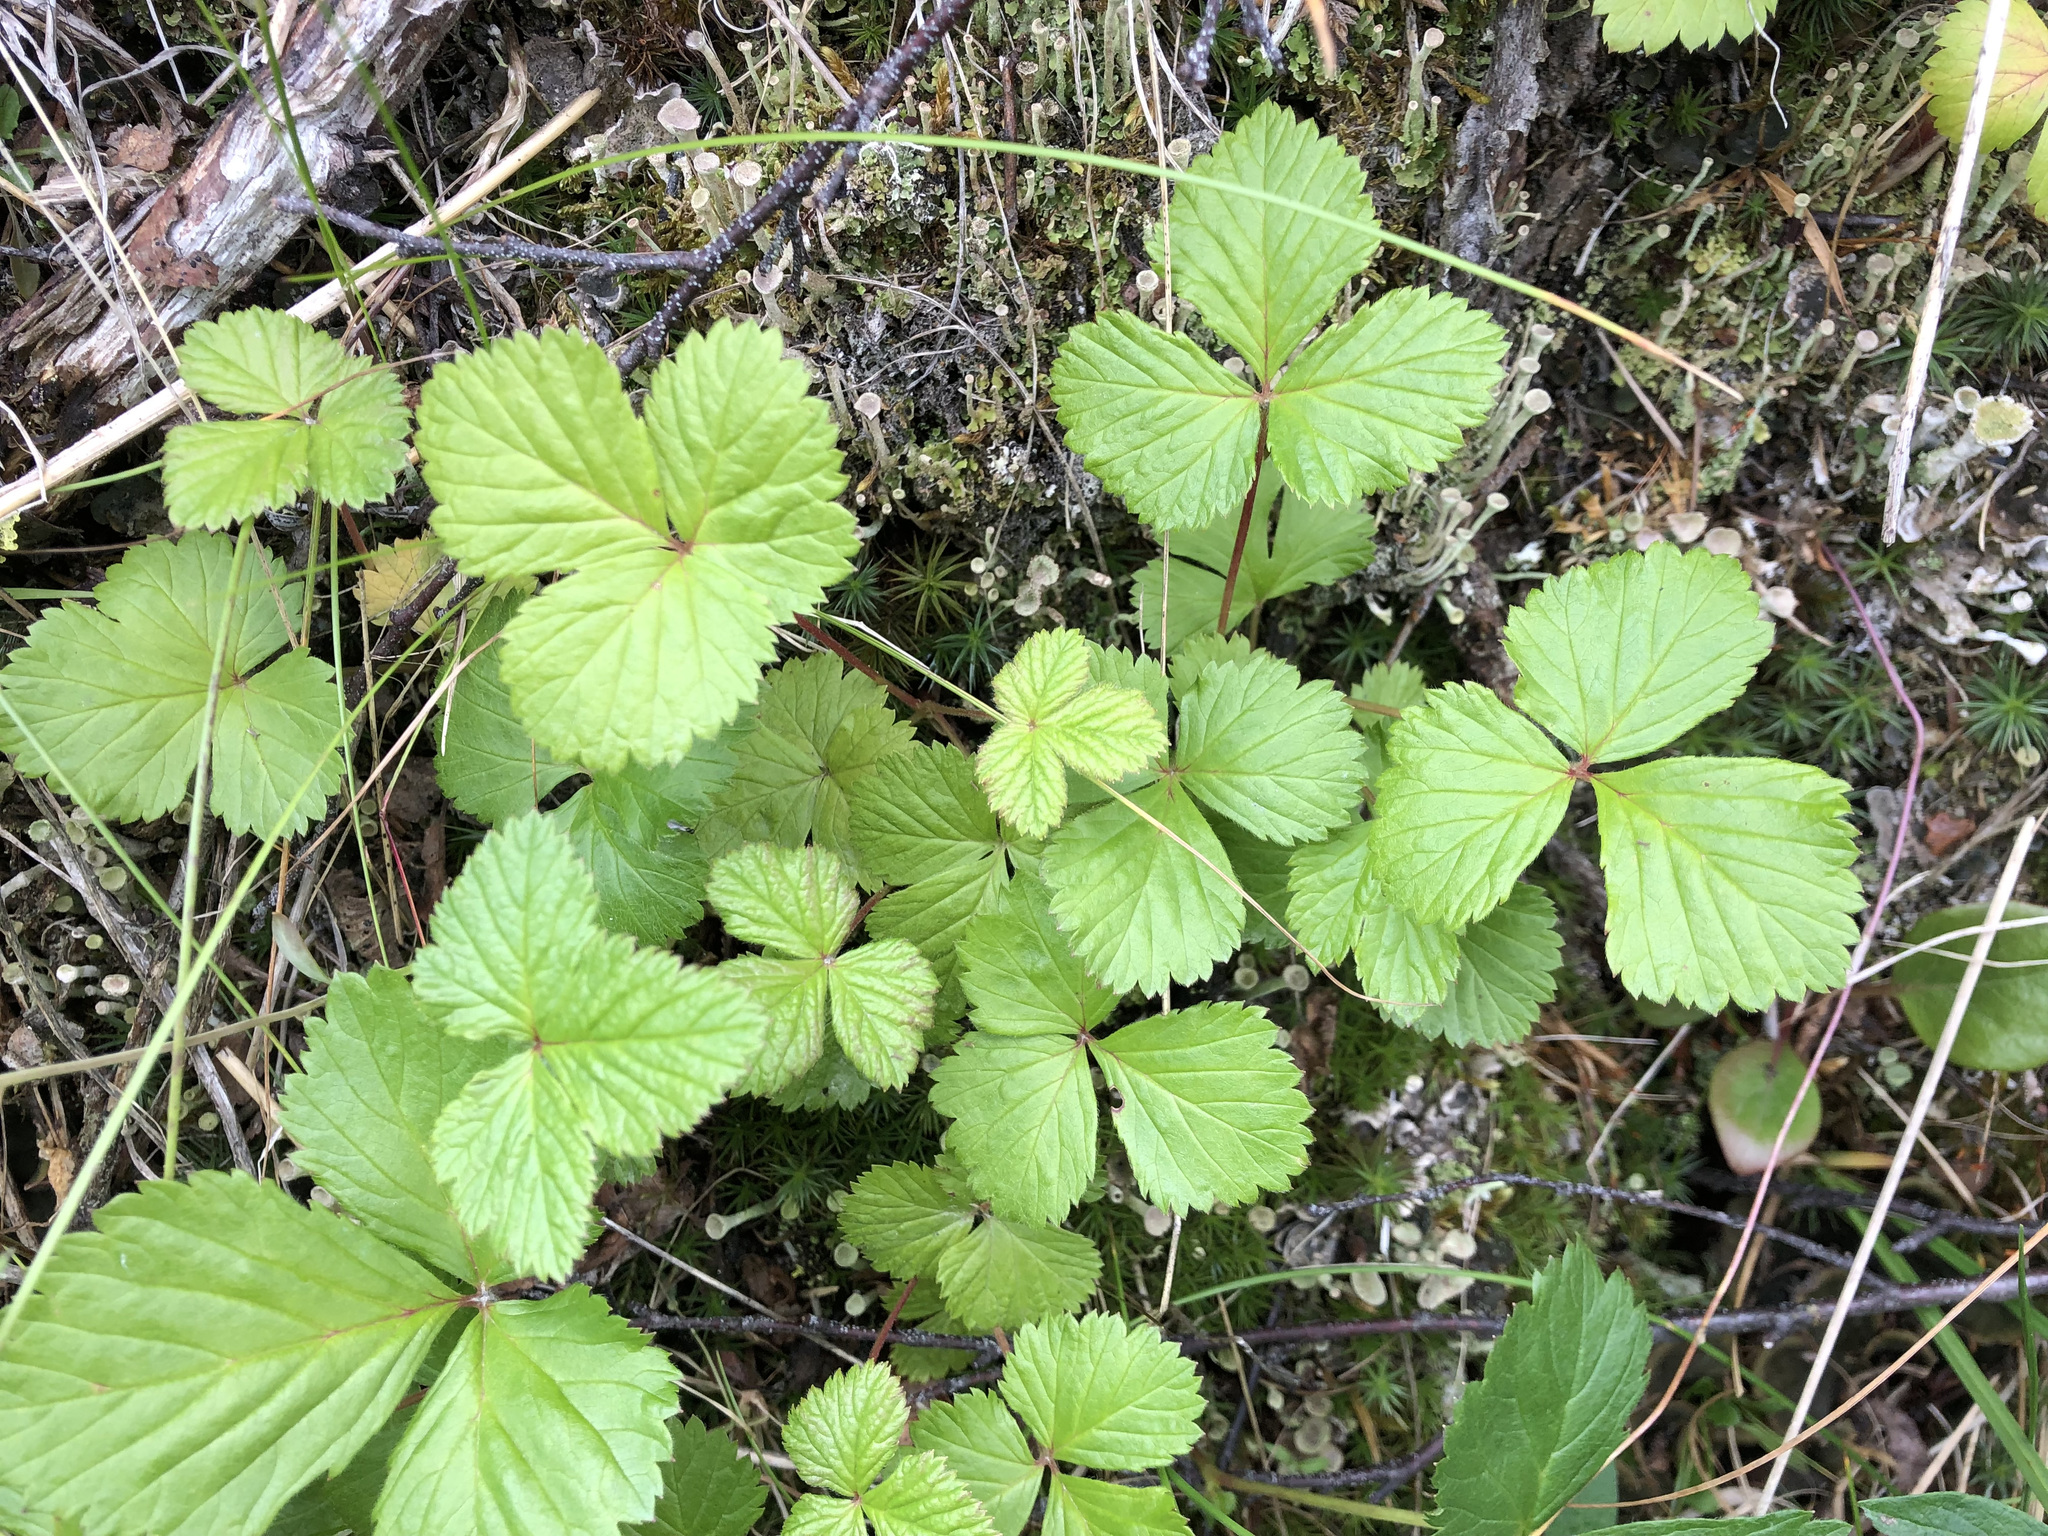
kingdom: Plantae
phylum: Tracheophyta
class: Magnoliopsida
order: Rosales
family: Rosaceae
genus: Rubus
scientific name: Rubus arcticus
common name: Arctic bramble
